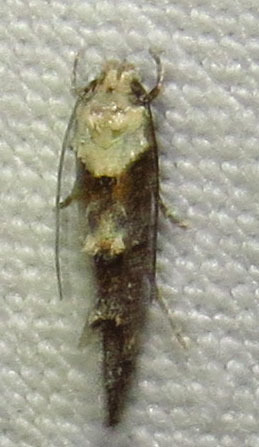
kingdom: Animalia
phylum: Arthropoda
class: Insecta
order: Lepidoptera
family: Momphidae
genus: Mompha
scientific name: Mompha albocapitella
